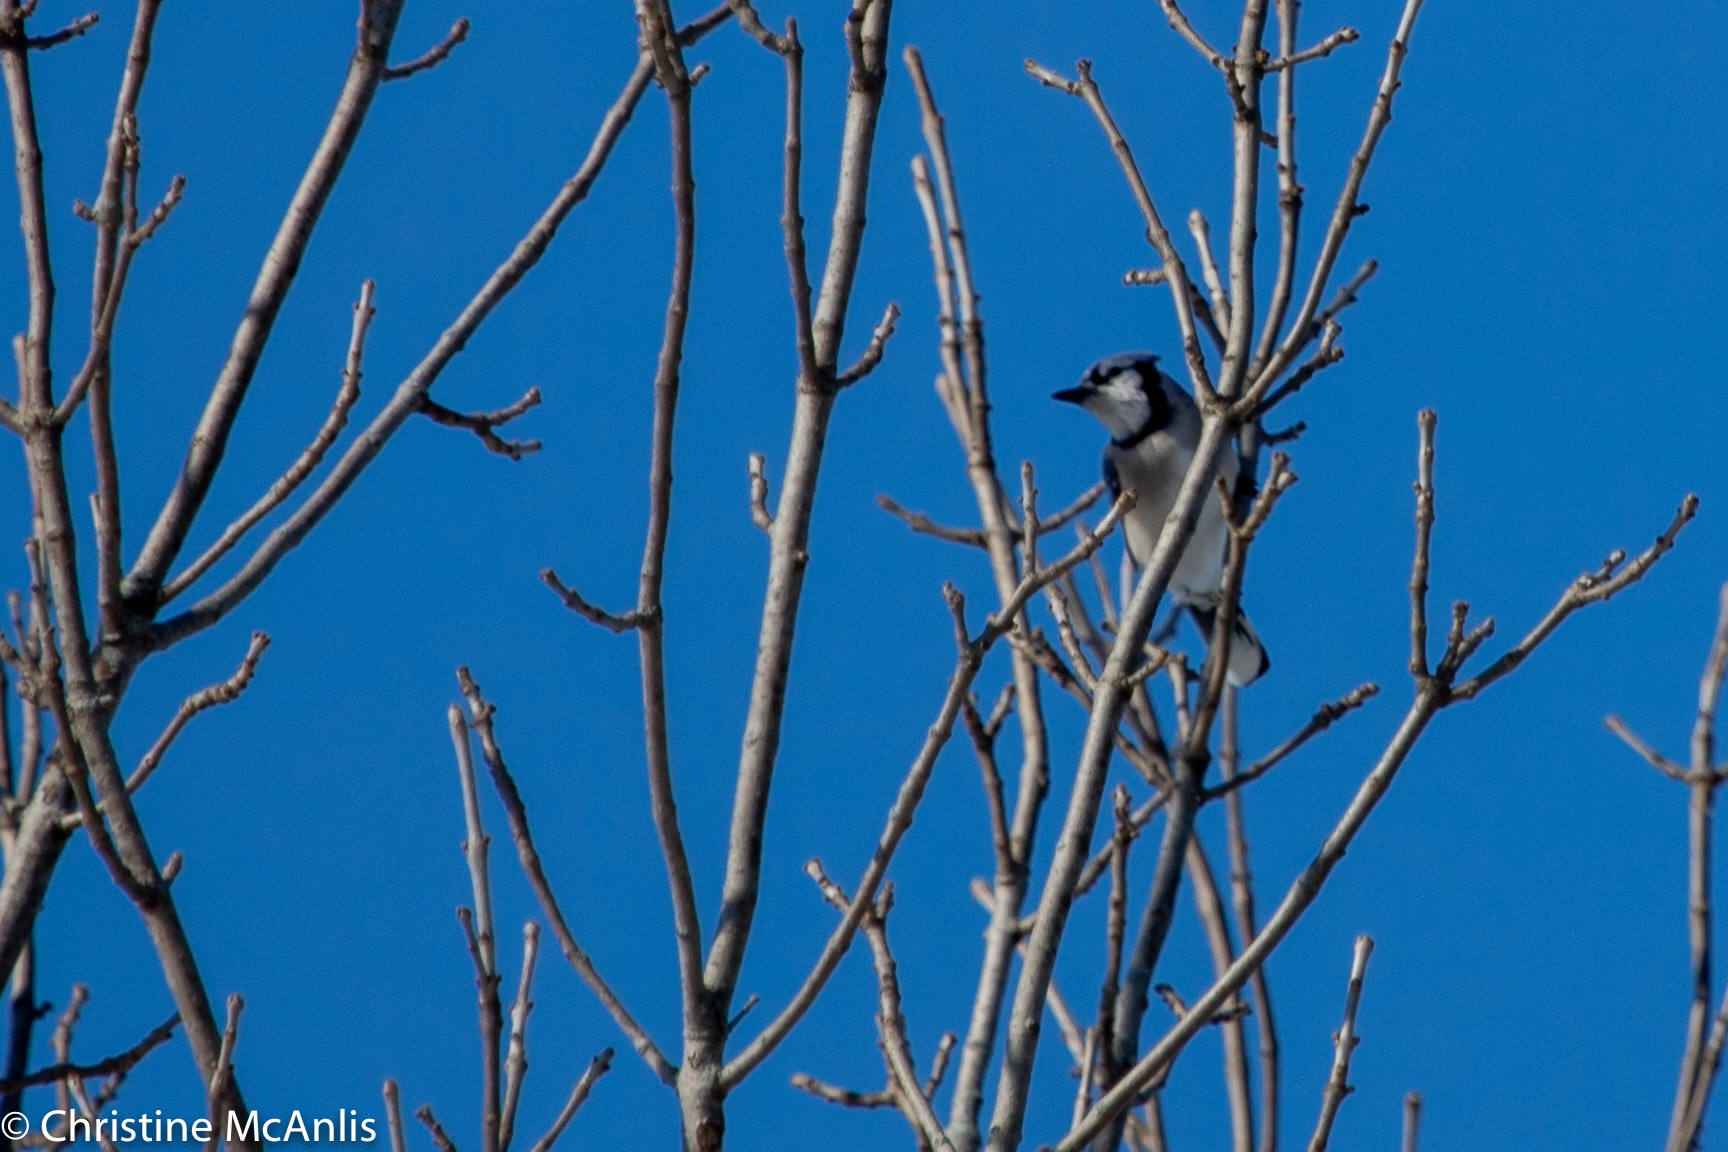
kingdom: Animalia
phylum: Chordata
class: Aves
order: Passeriformes
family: Corvidae
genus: Cyanocitta
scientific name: Cyanocitta cristata
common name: Blue jay
